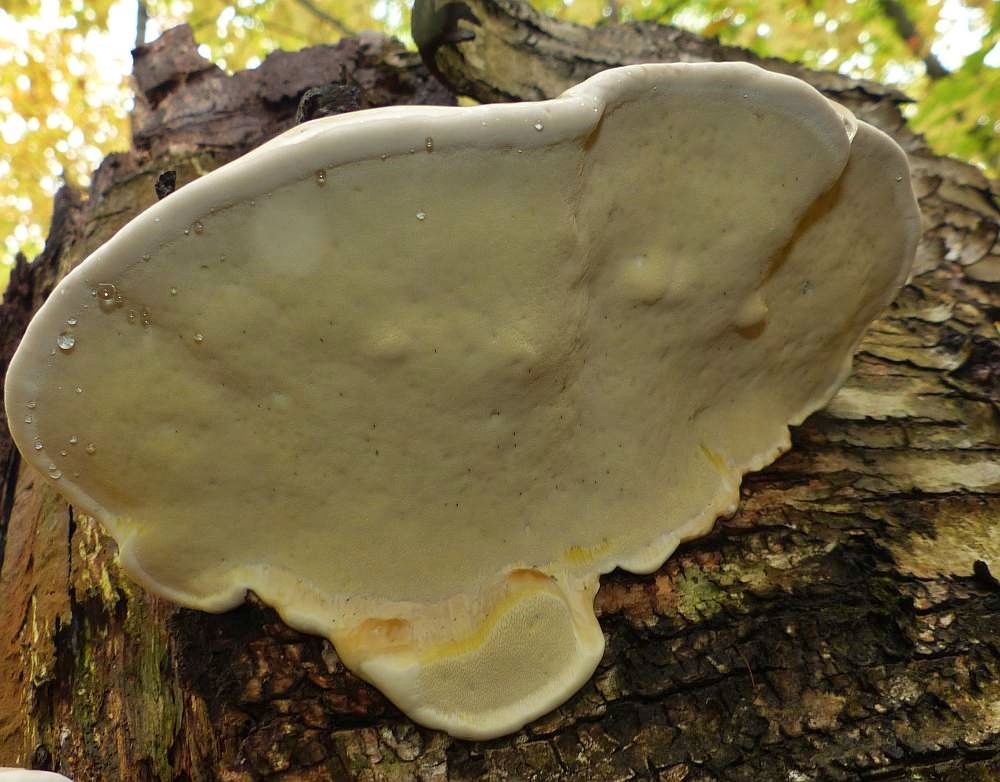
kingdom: Fungi
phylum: Basidiomycota
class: Agaricomycetes
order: Polyporales
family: Fomitopsidaceae
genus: Fomitopsis
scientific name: Fomitopsis mounceae
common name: Northern red belt
